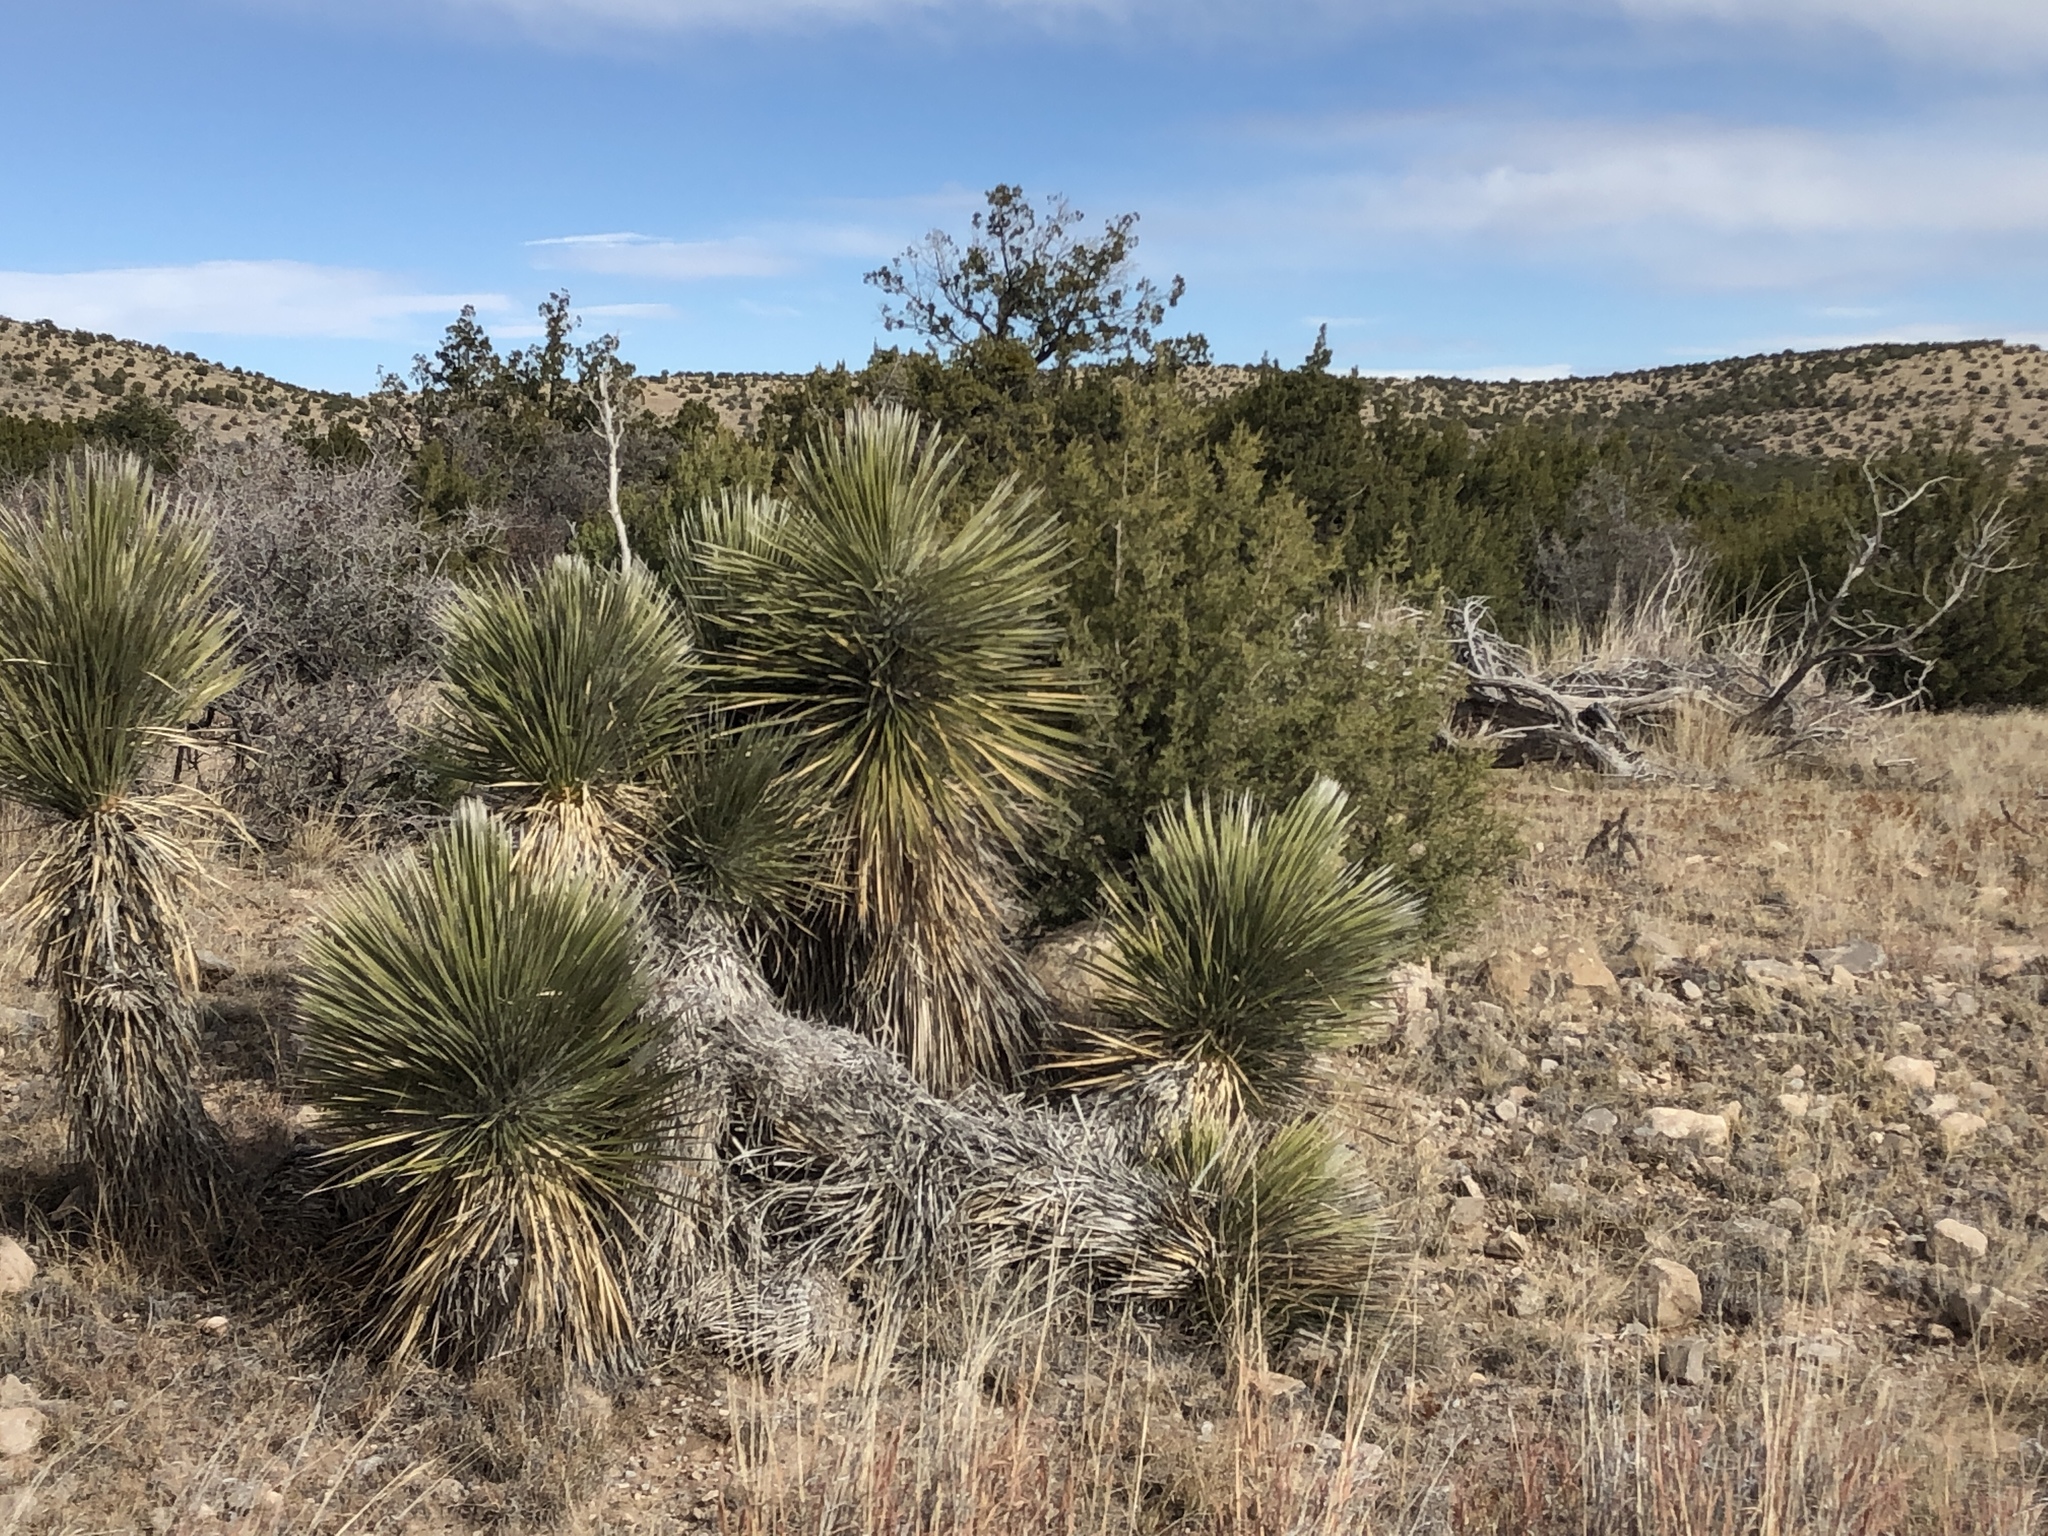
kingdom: Plantae
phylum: Tracheophyta
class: Liliopsida
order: Asparagales
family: Asparagaceae
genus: Yucca
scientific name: Yucca elata
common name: Palmella
